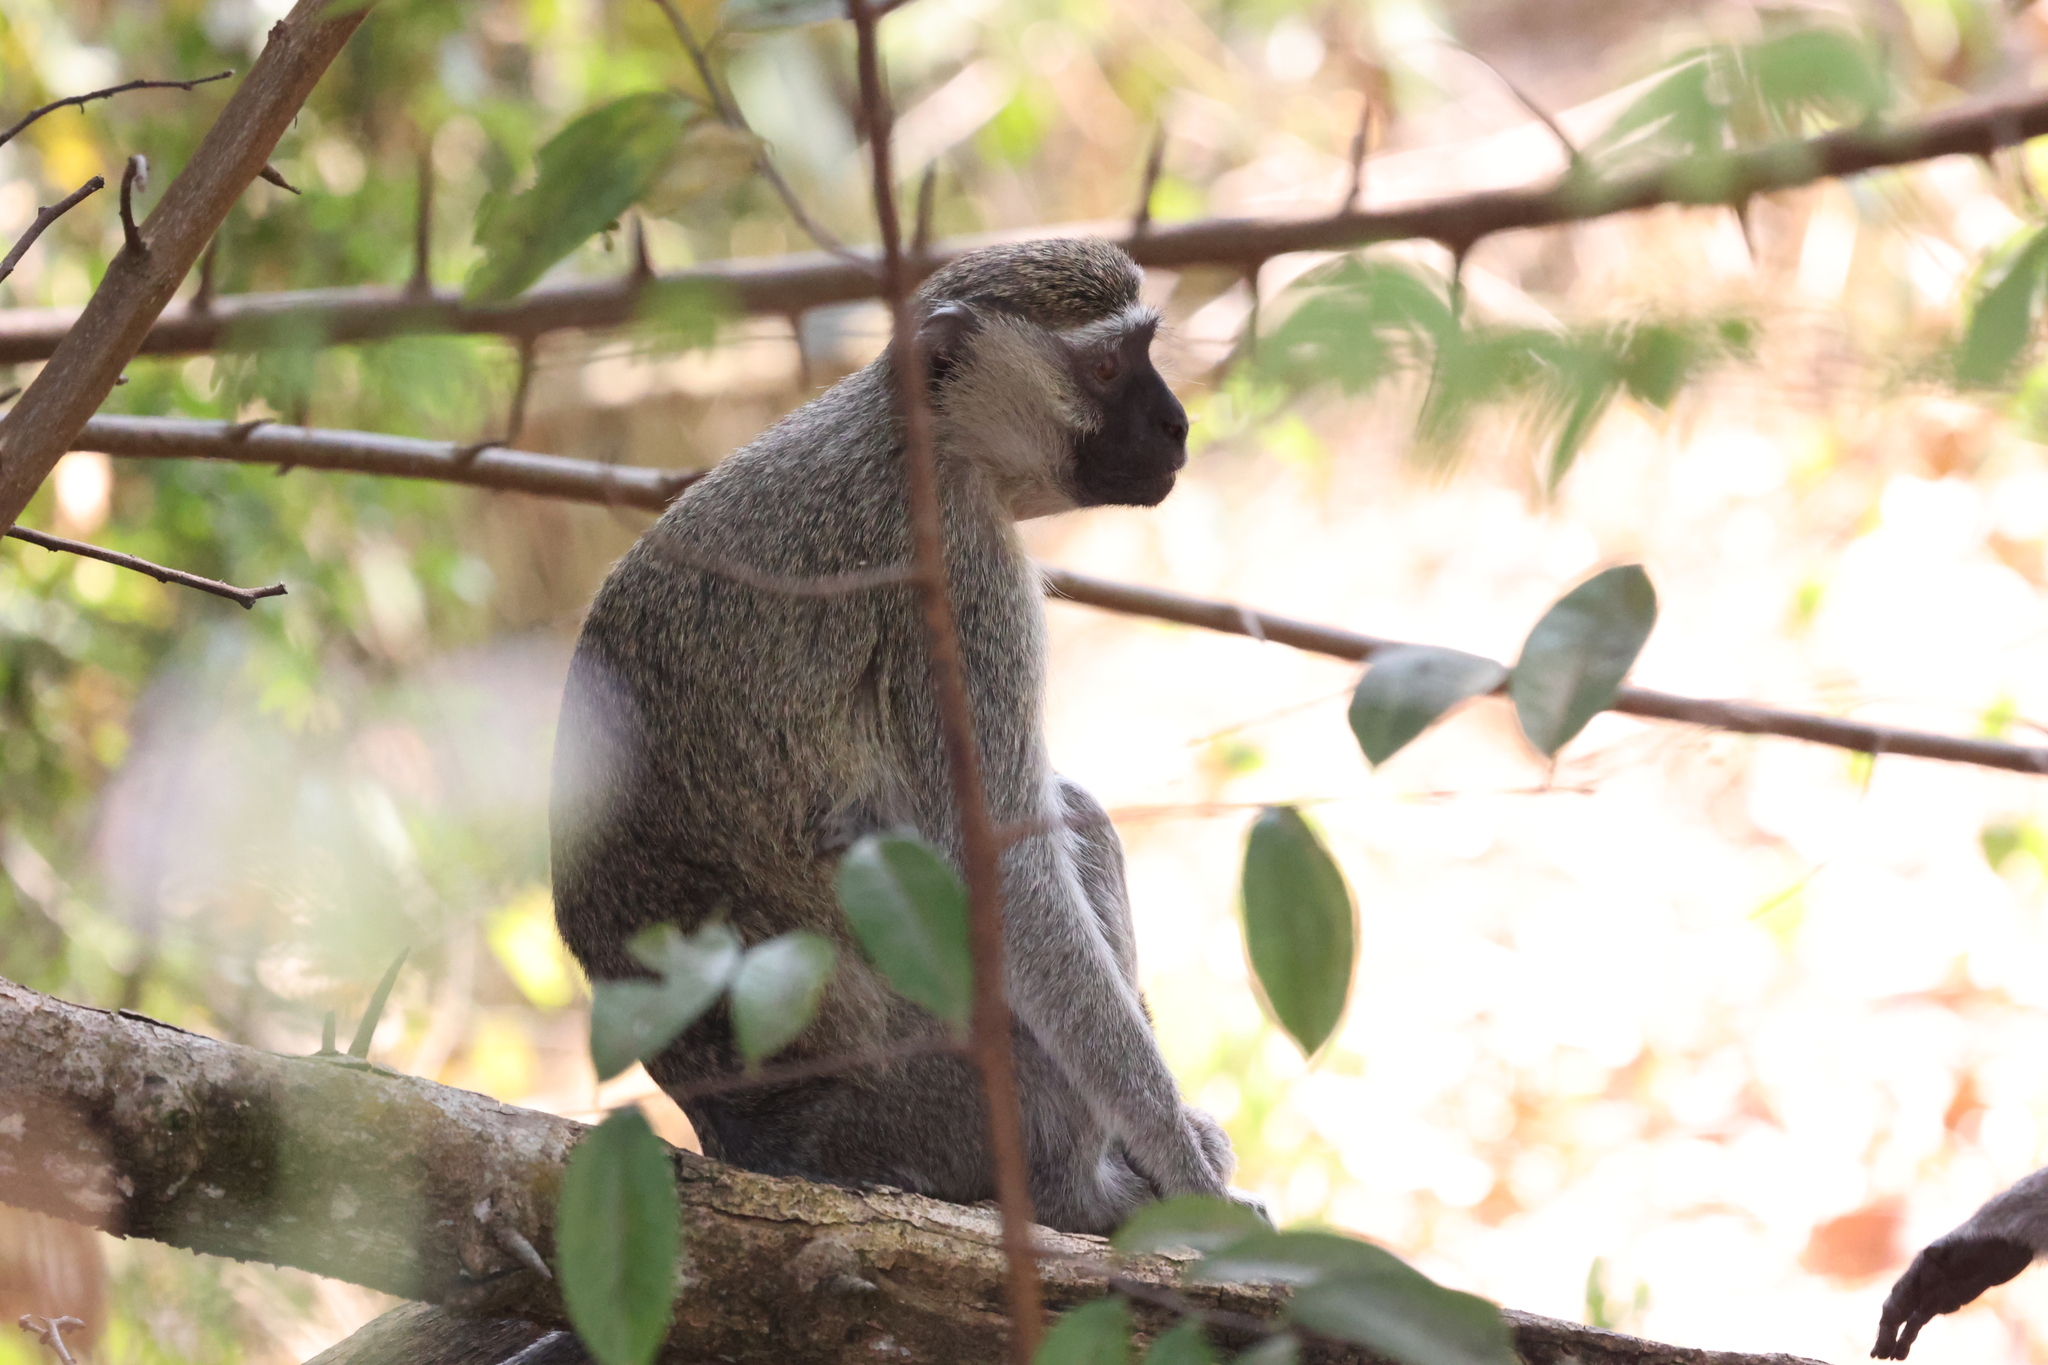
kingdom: Animalia
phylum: Chordata
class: Mammalia
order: Primates
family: Cercopithecidae
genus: Chlorocebus
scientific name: Chlorocebus tantalus
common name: Tantalus monkey
